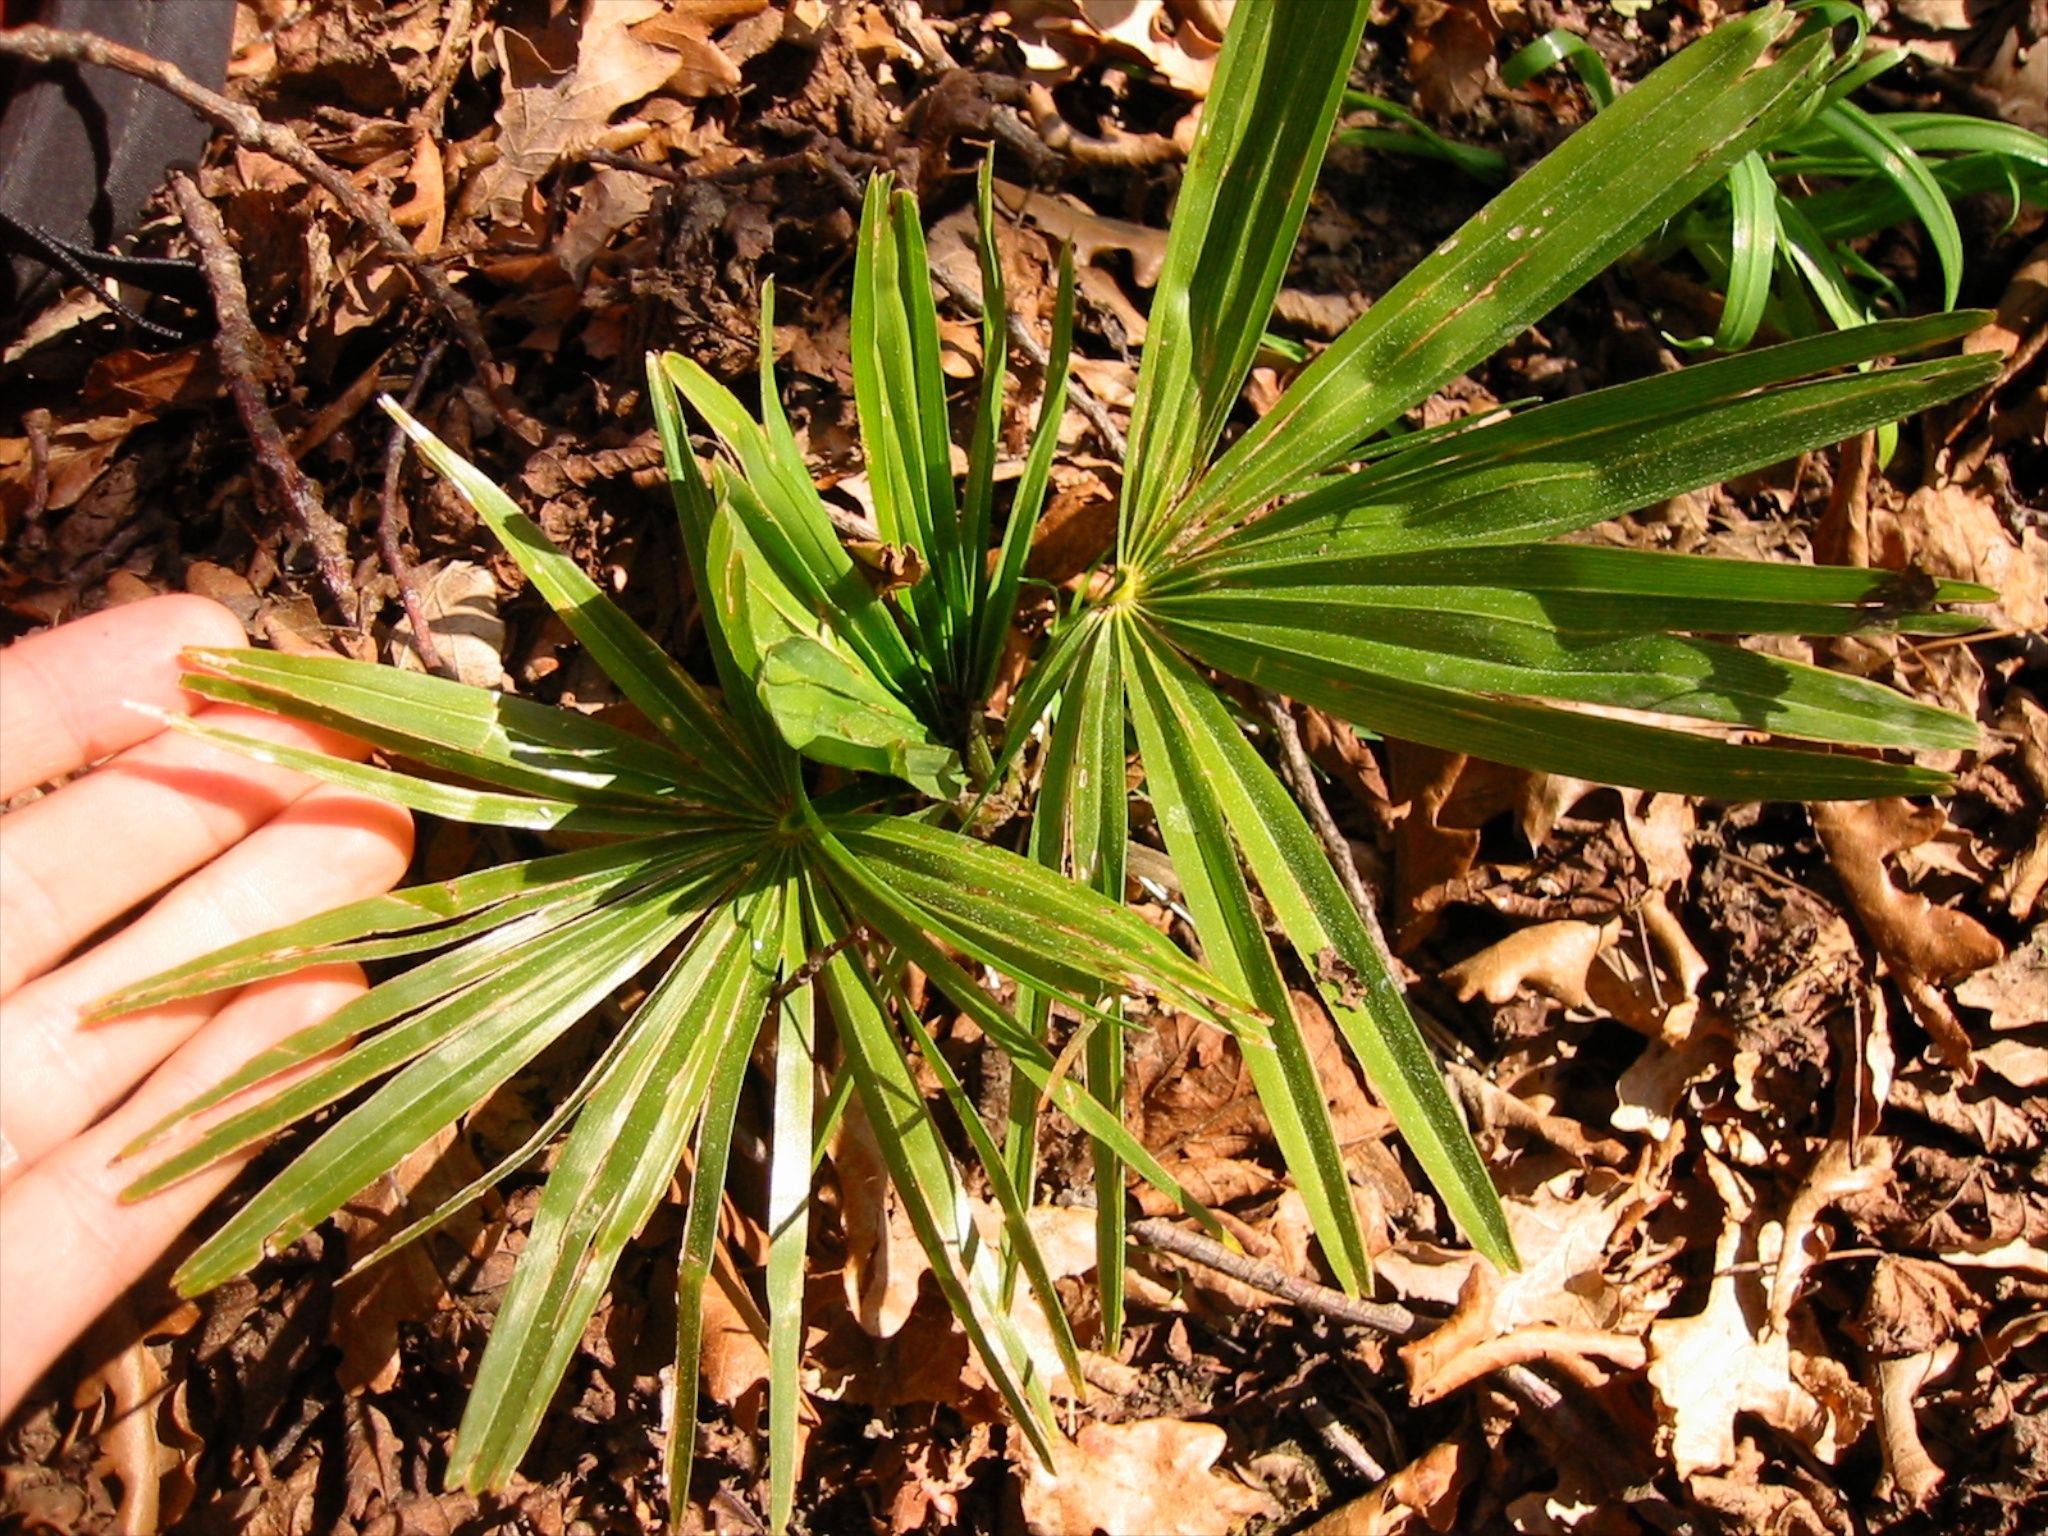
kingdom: Plantae
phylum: Tracheophyta
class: Liliopsida
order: Arecales
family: Arecaceae
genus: Trachycarpus
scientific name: Trachycarpus fortunei
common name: Chusan palm
